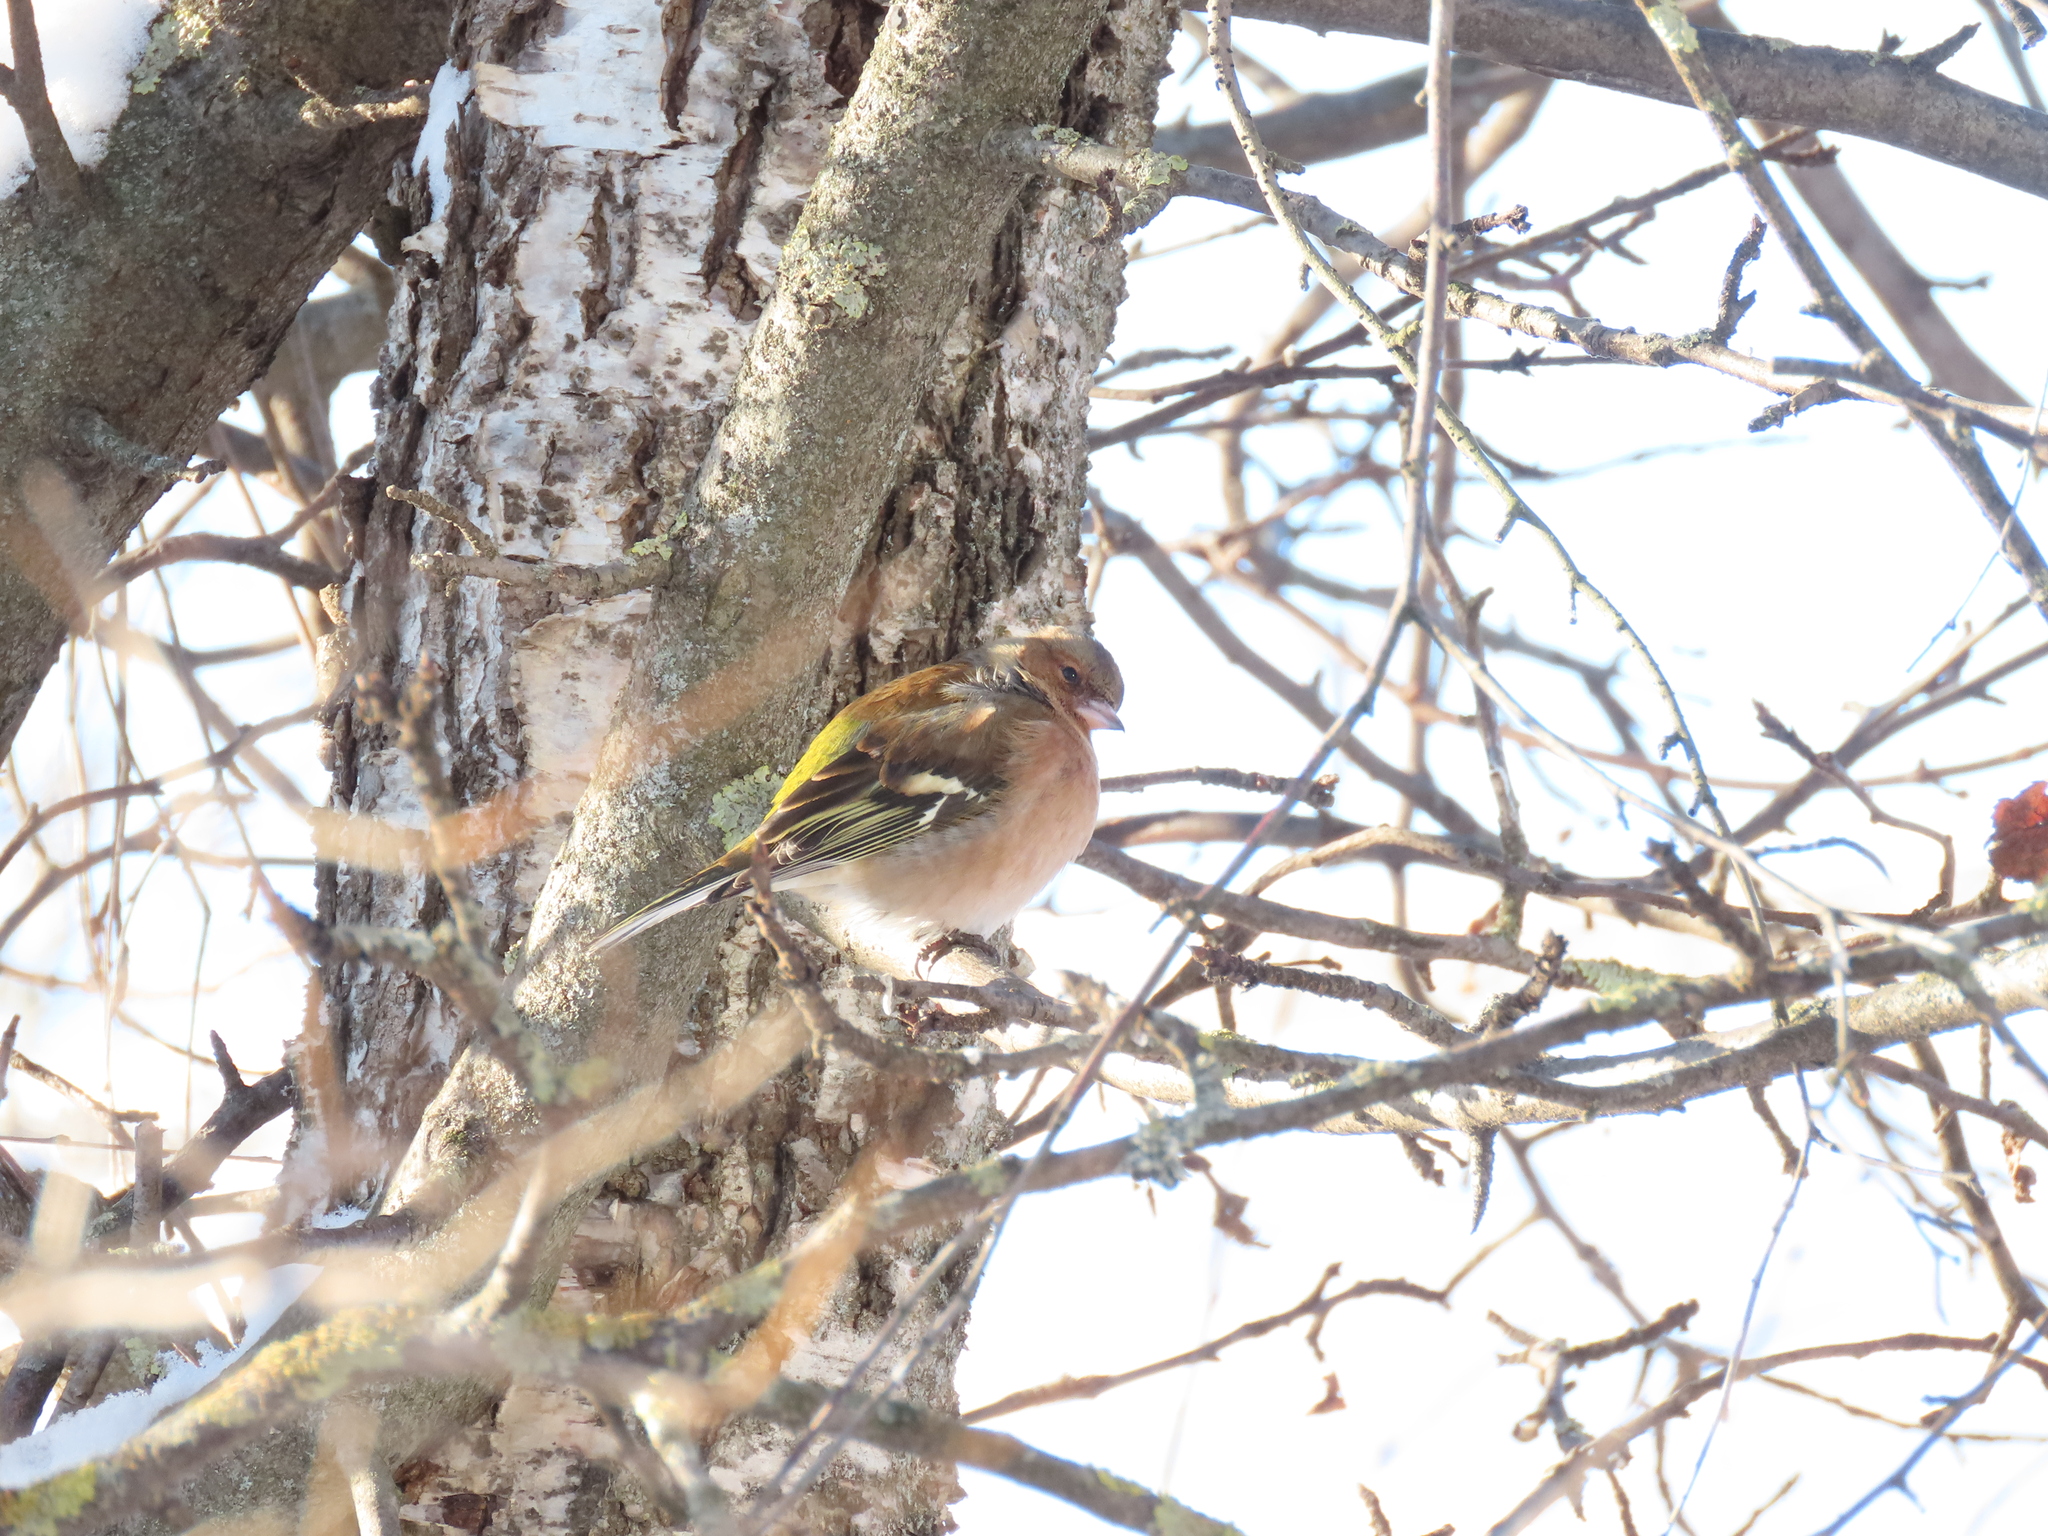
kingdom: Animalia
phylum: Chordata
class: Aves
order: Passeriformes
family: Fringillidae
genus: Fringilla
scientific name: Fringilla coelebs
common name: Common chaffinch
